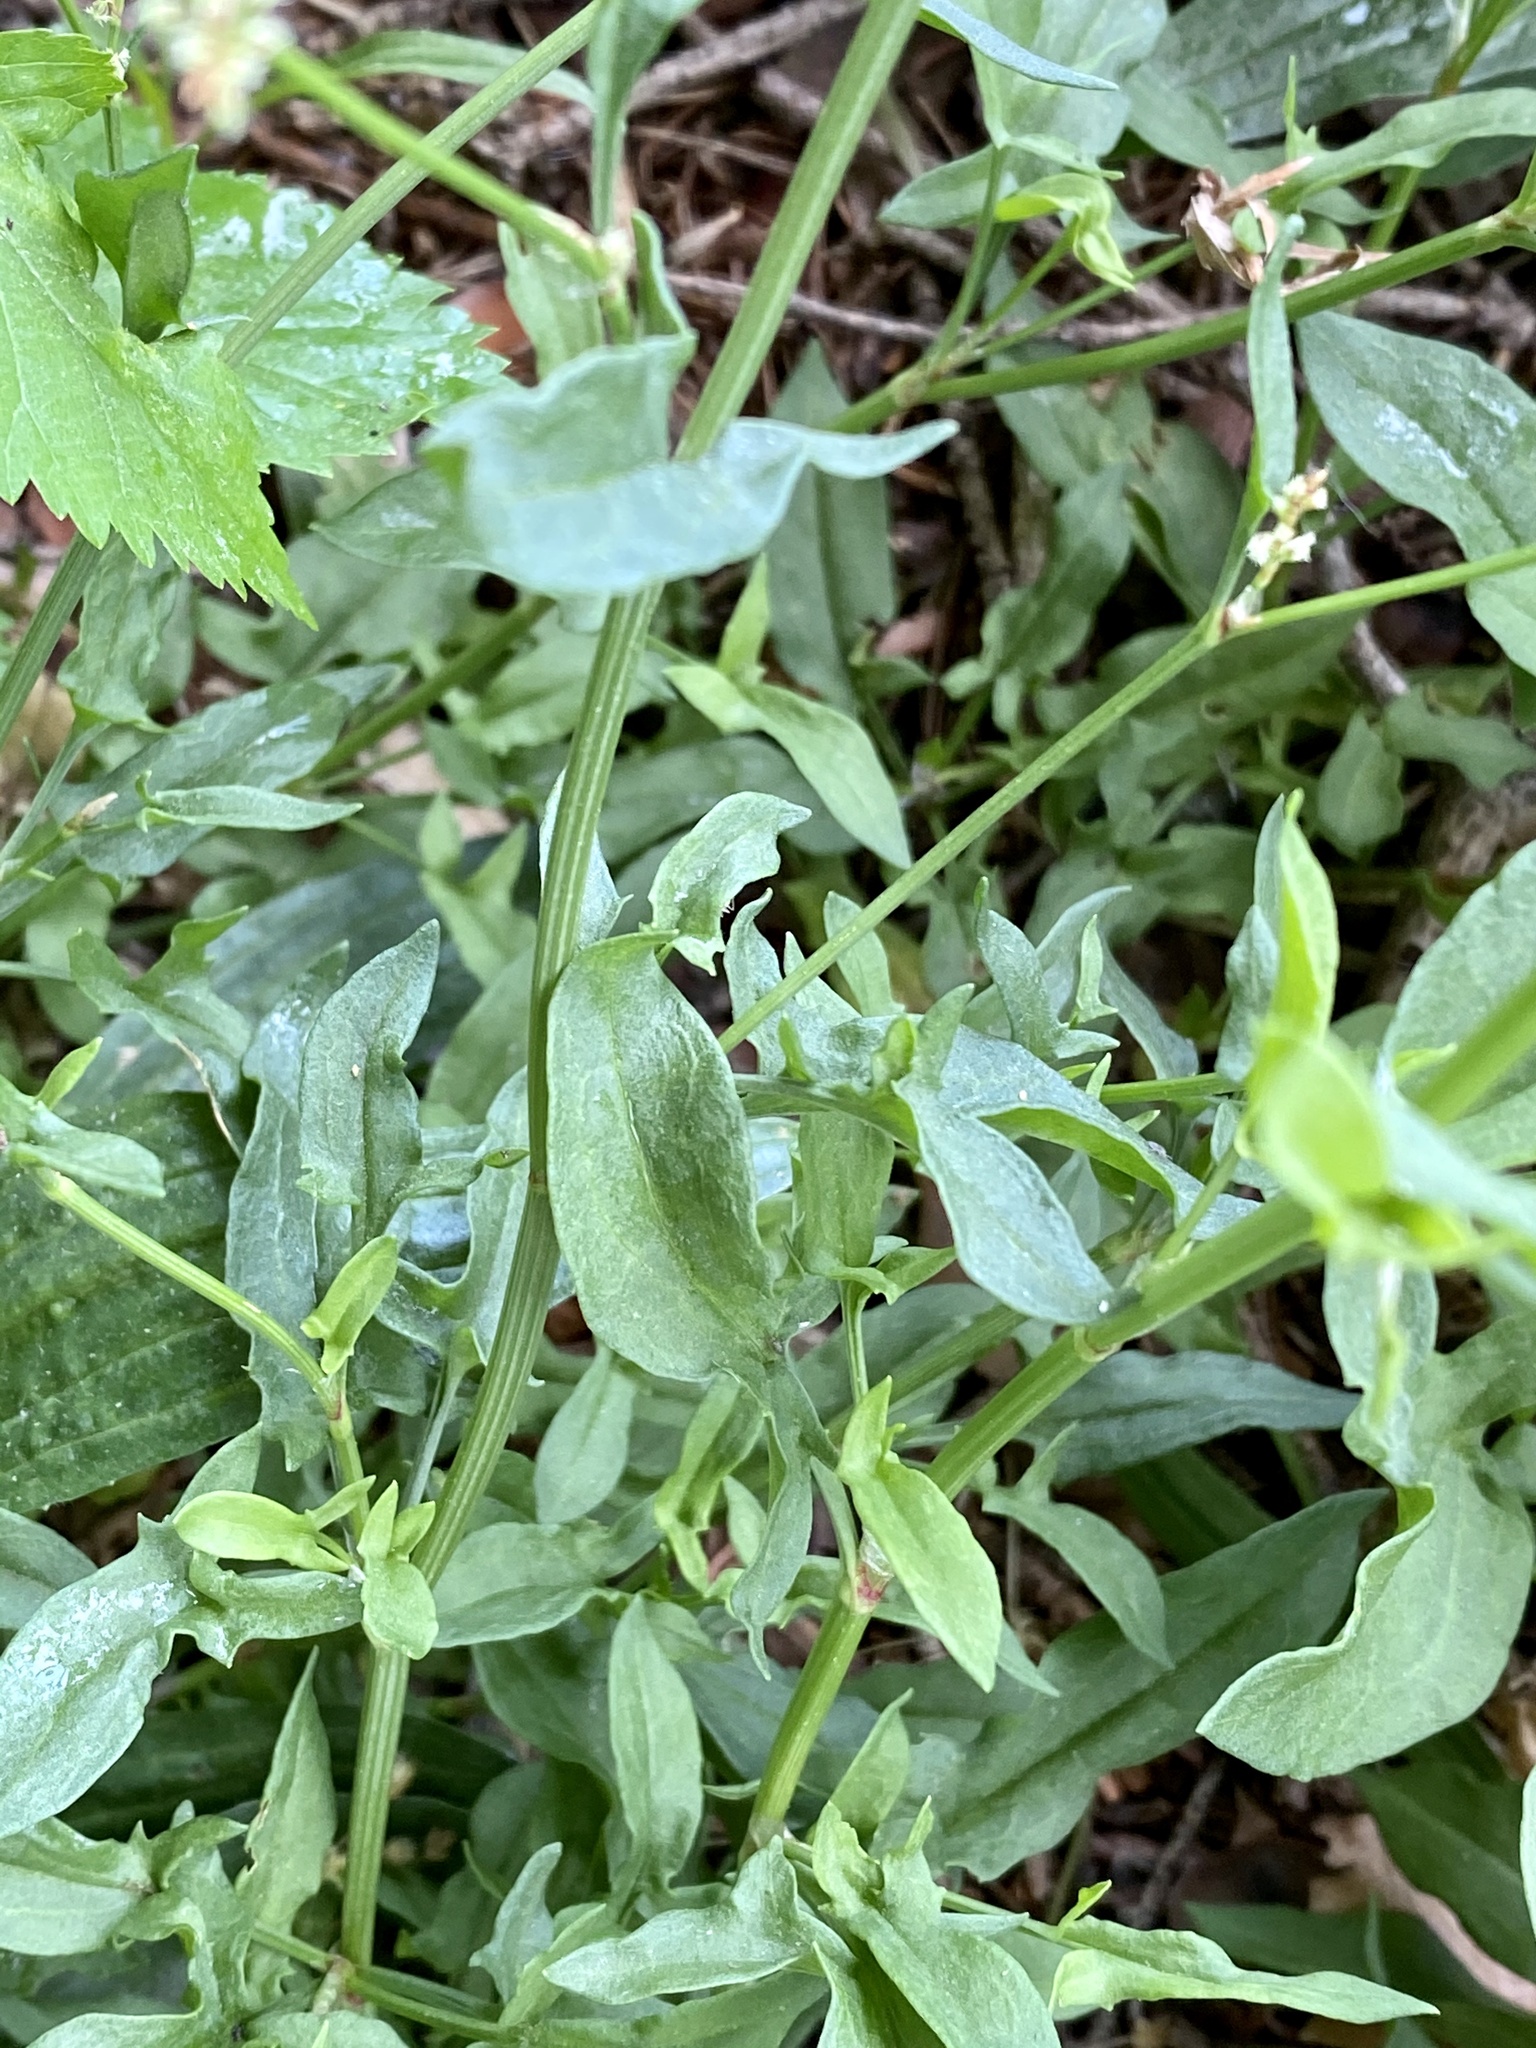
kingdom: Plantae
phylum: Tracheophyta
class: Magnoliopsida
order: Caryophyllales
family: Polygonaceae
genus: Rumex
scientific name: Rumex acetosella
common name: Common sheep sorrel
